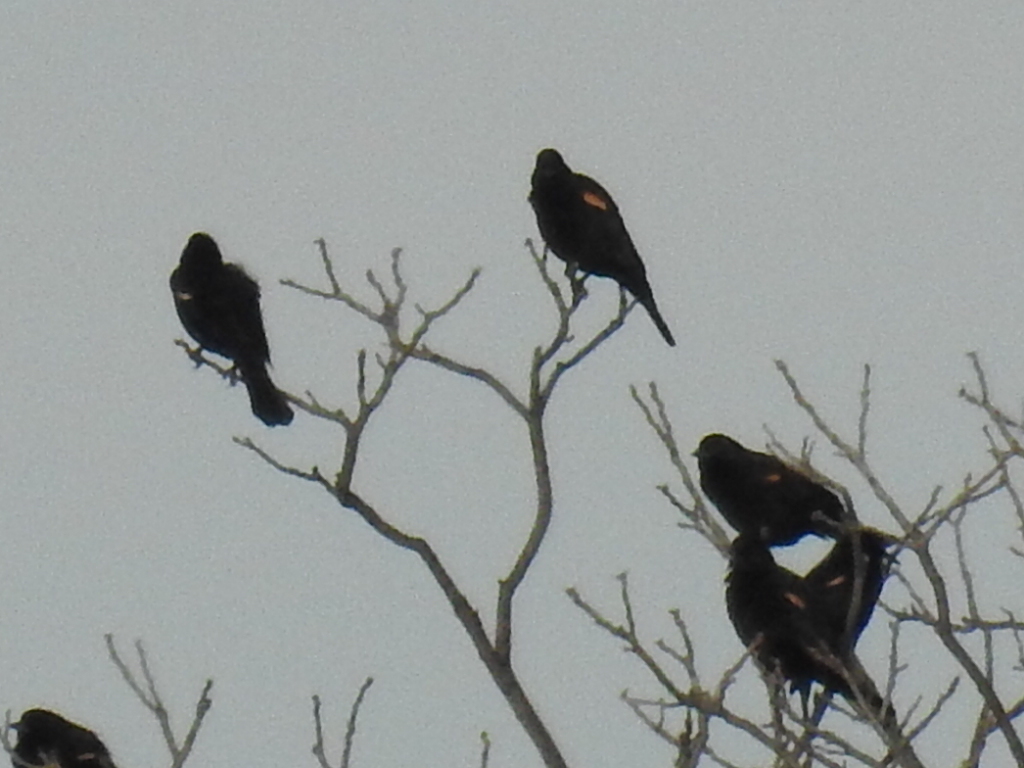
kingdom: Animalia
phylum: Chordata
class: Aves
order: Passeriformes
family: Icteridae
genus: Agelaius
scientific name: Agelaius phoeniceus
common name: Red-winged blackbird
